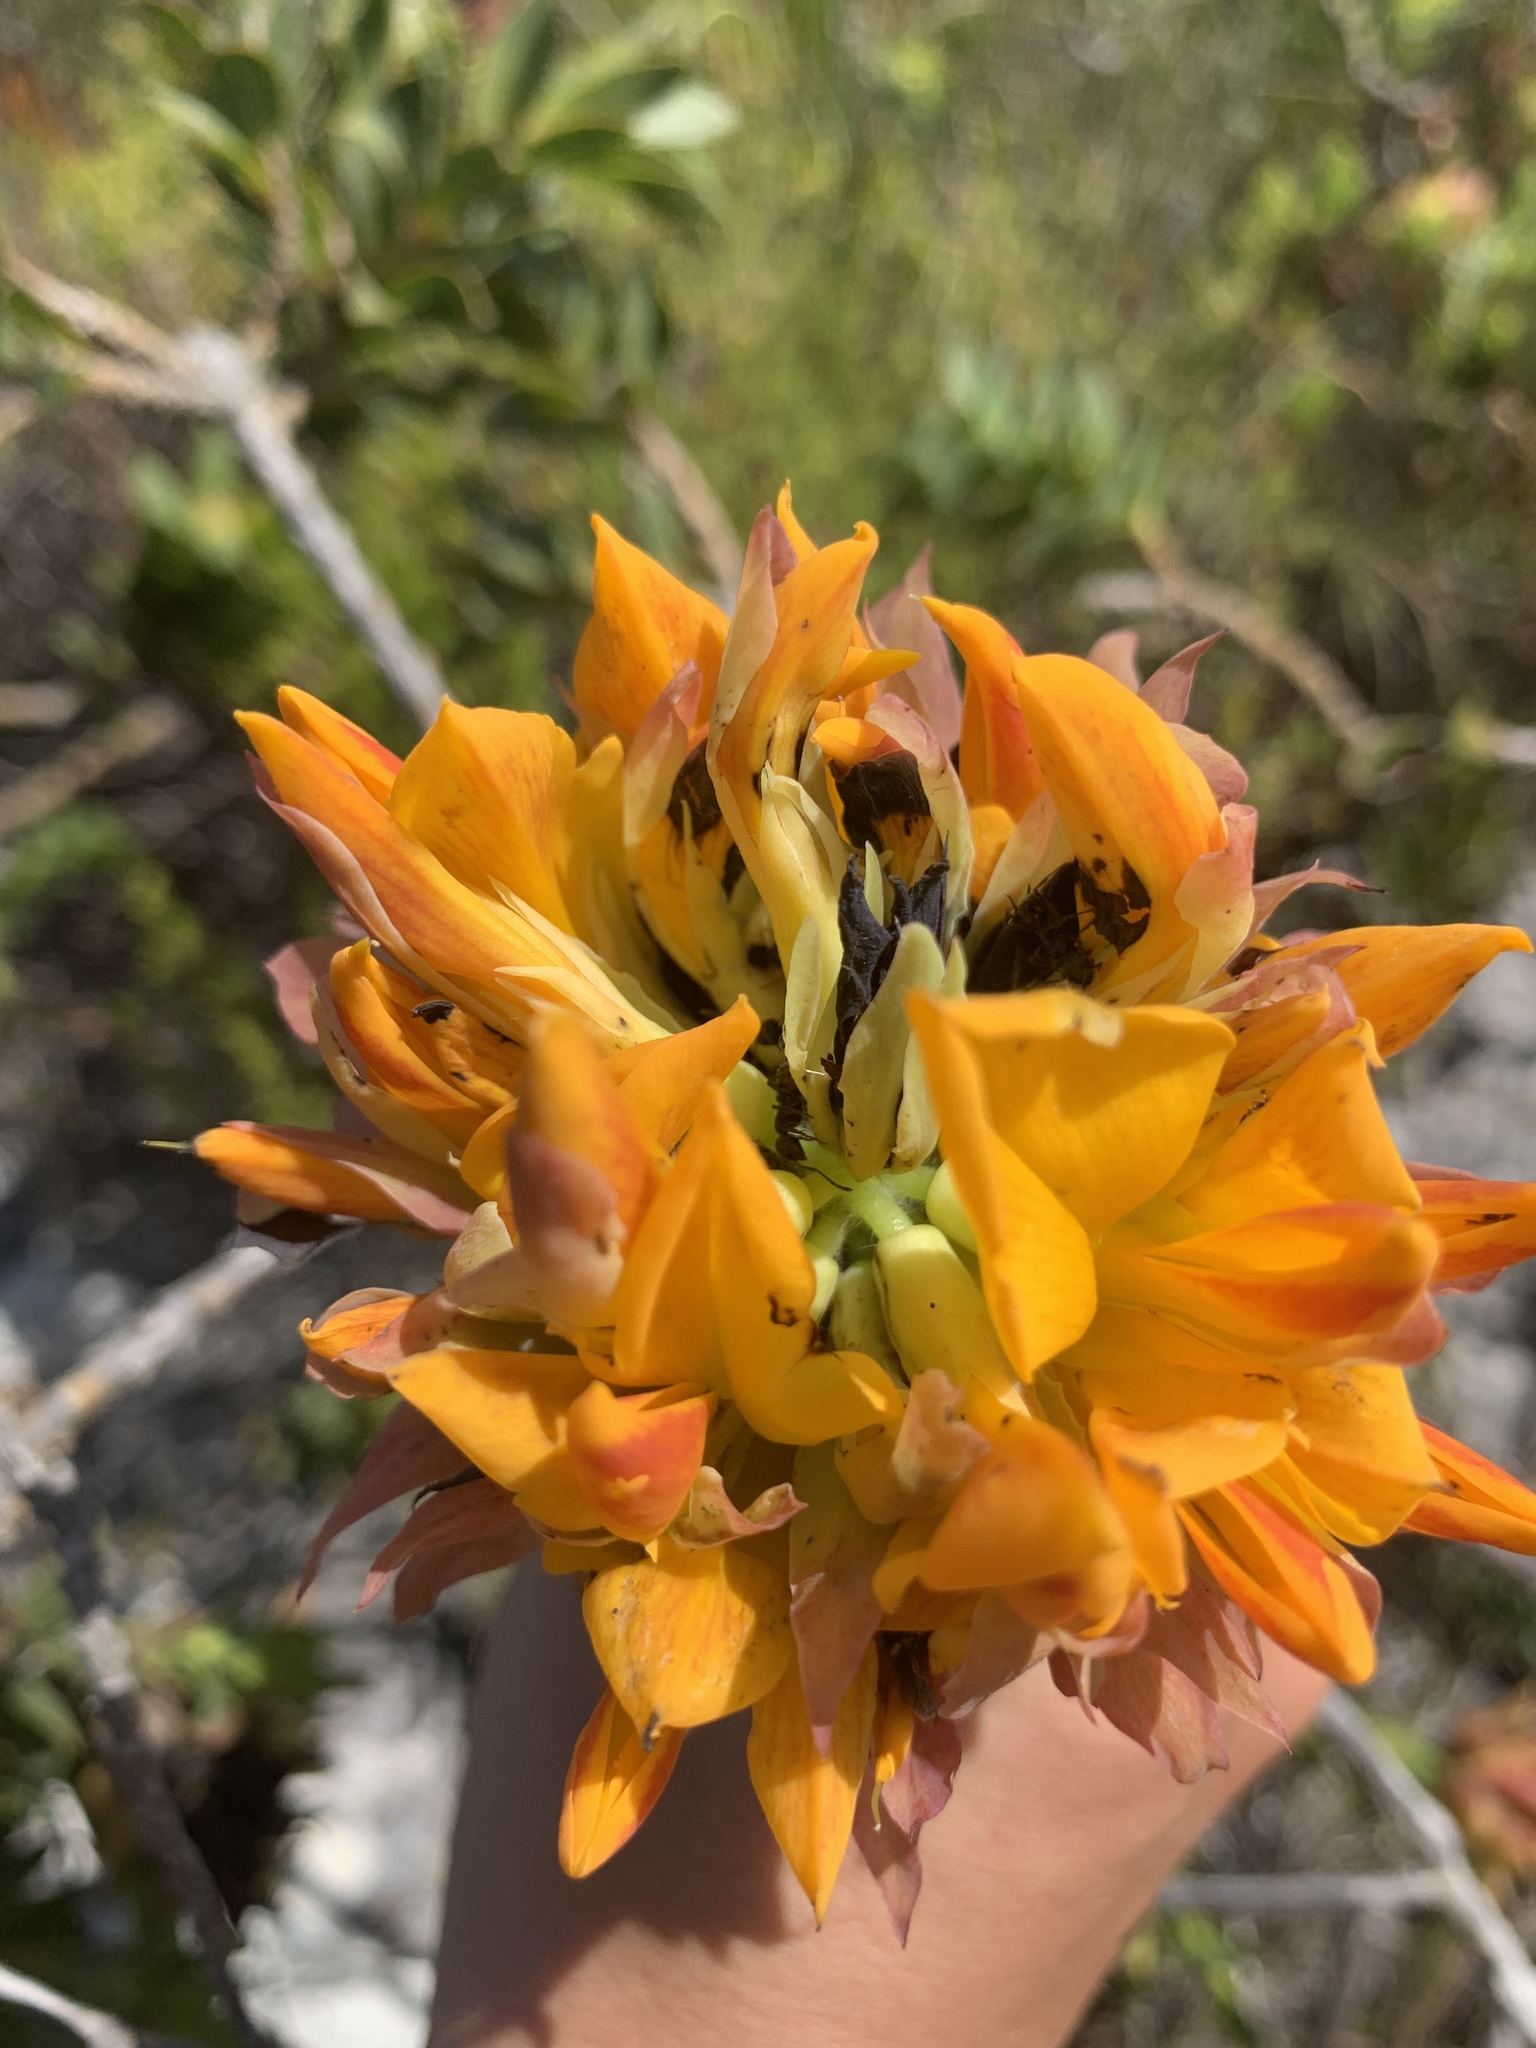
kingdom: Plantae
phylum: Tracheophyta
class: Magnoliopsida
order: Fabales
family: Fabaceae
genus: Liparia
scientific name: Liparia splendens
